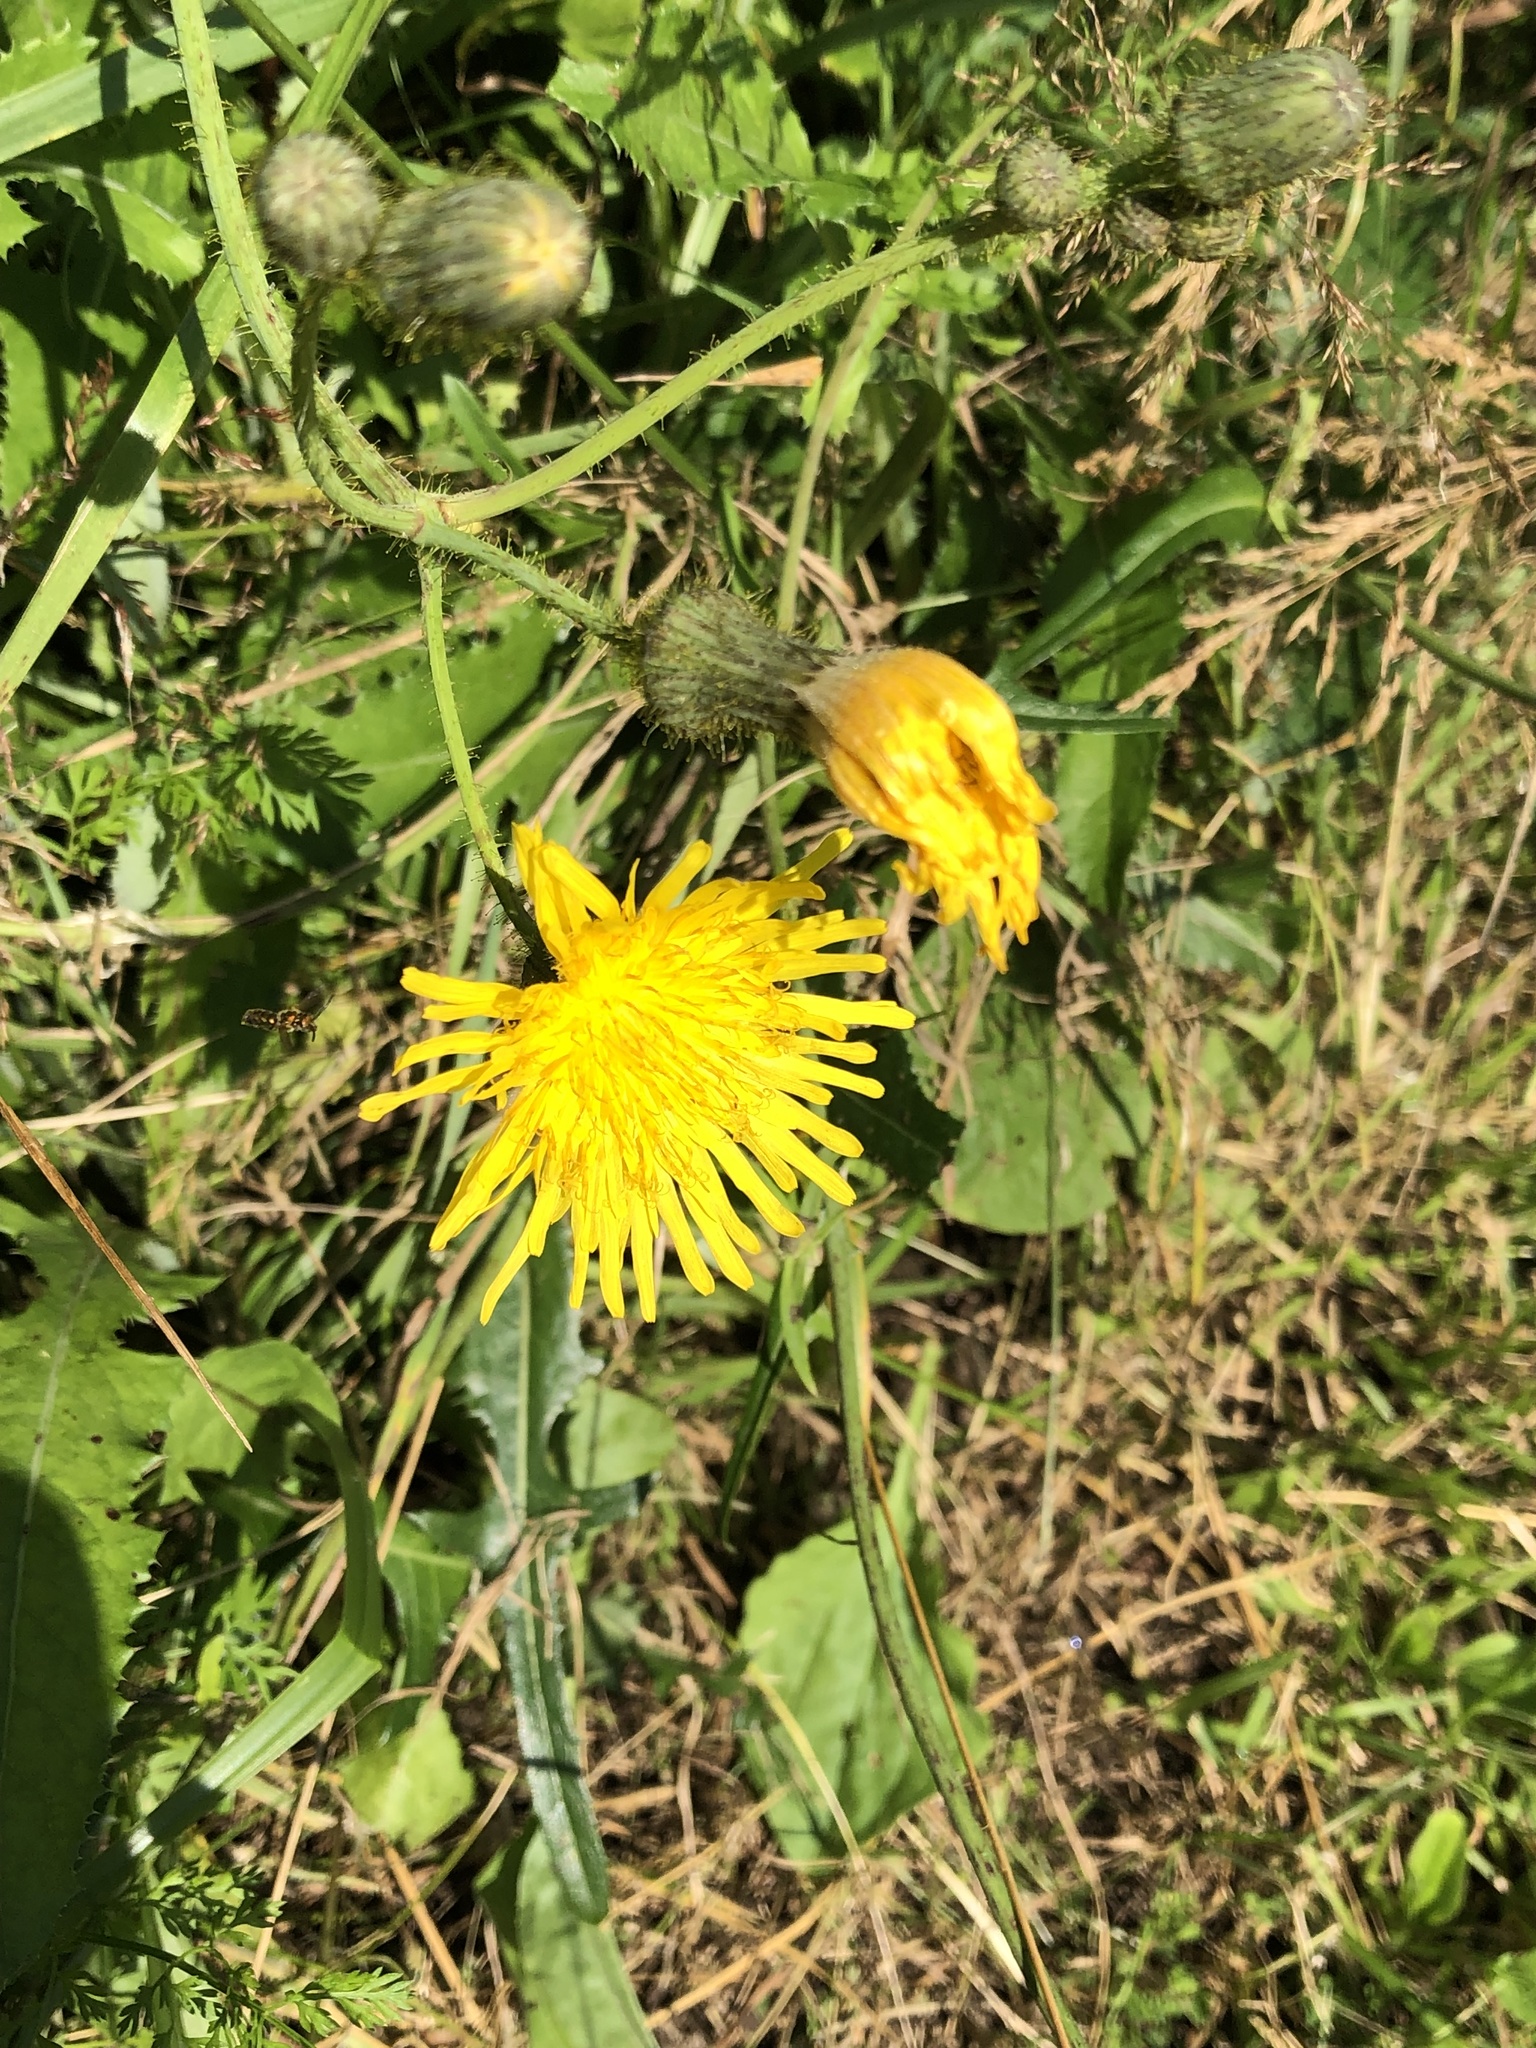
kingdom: Plantae
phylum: Tracheophyta
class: Magnoliopsida
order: Asterales
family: Asteraceae
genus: Sonchus
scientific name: Sonchus arvensis
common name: Perennial sow-thistle
